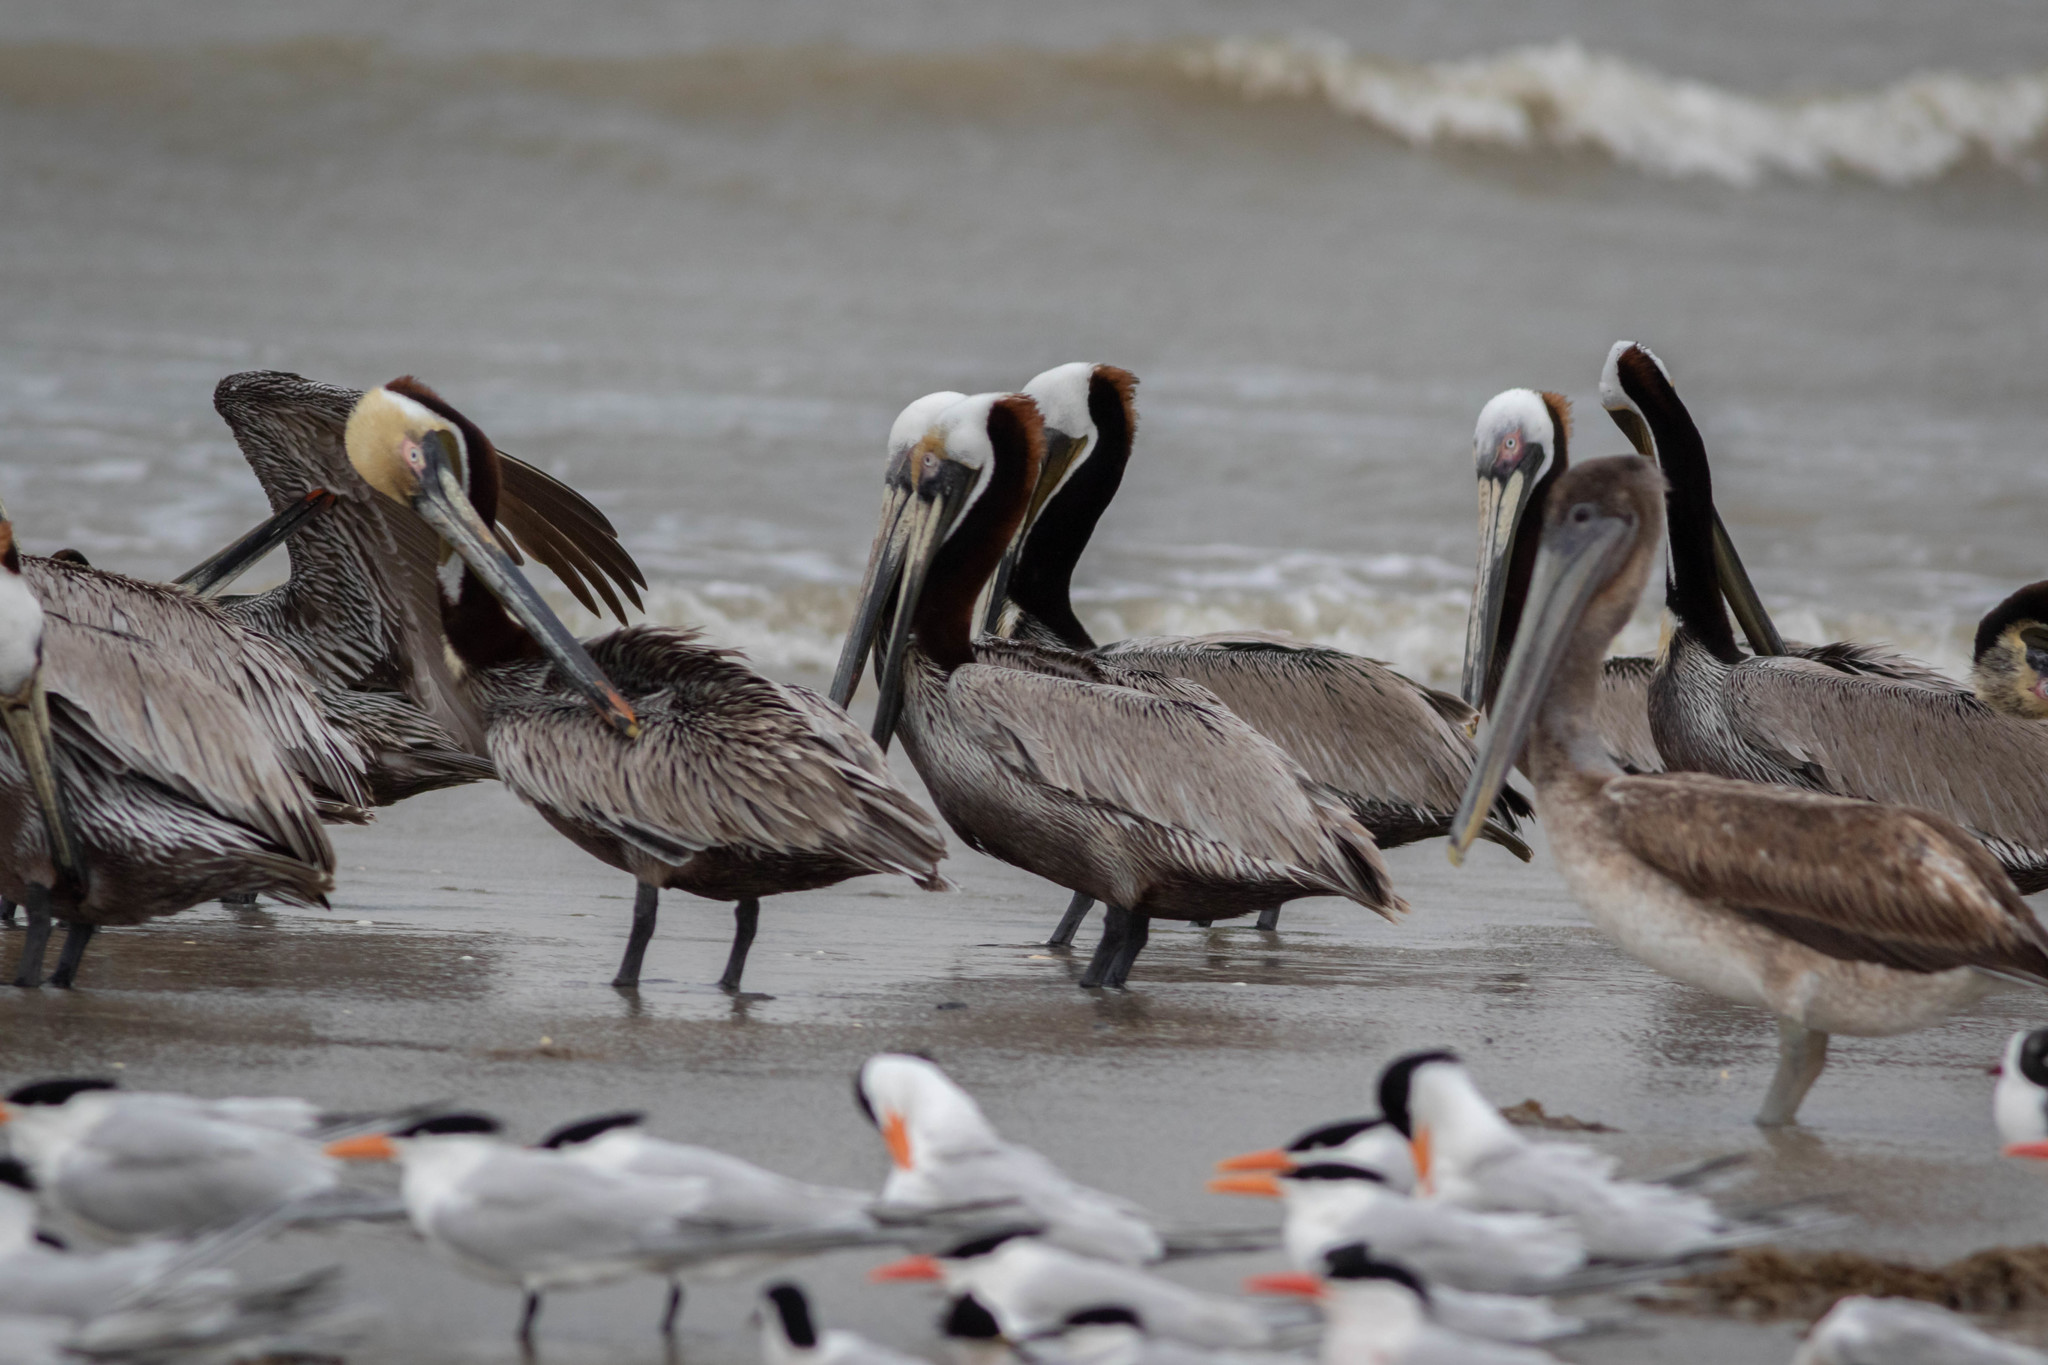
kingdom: Animalia
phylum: Chordata
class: Aves
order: Pelecaniformes
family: Pelecanidae
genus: Pelecanus
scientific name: Pelecanus occidentalis
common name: Brown pelican
